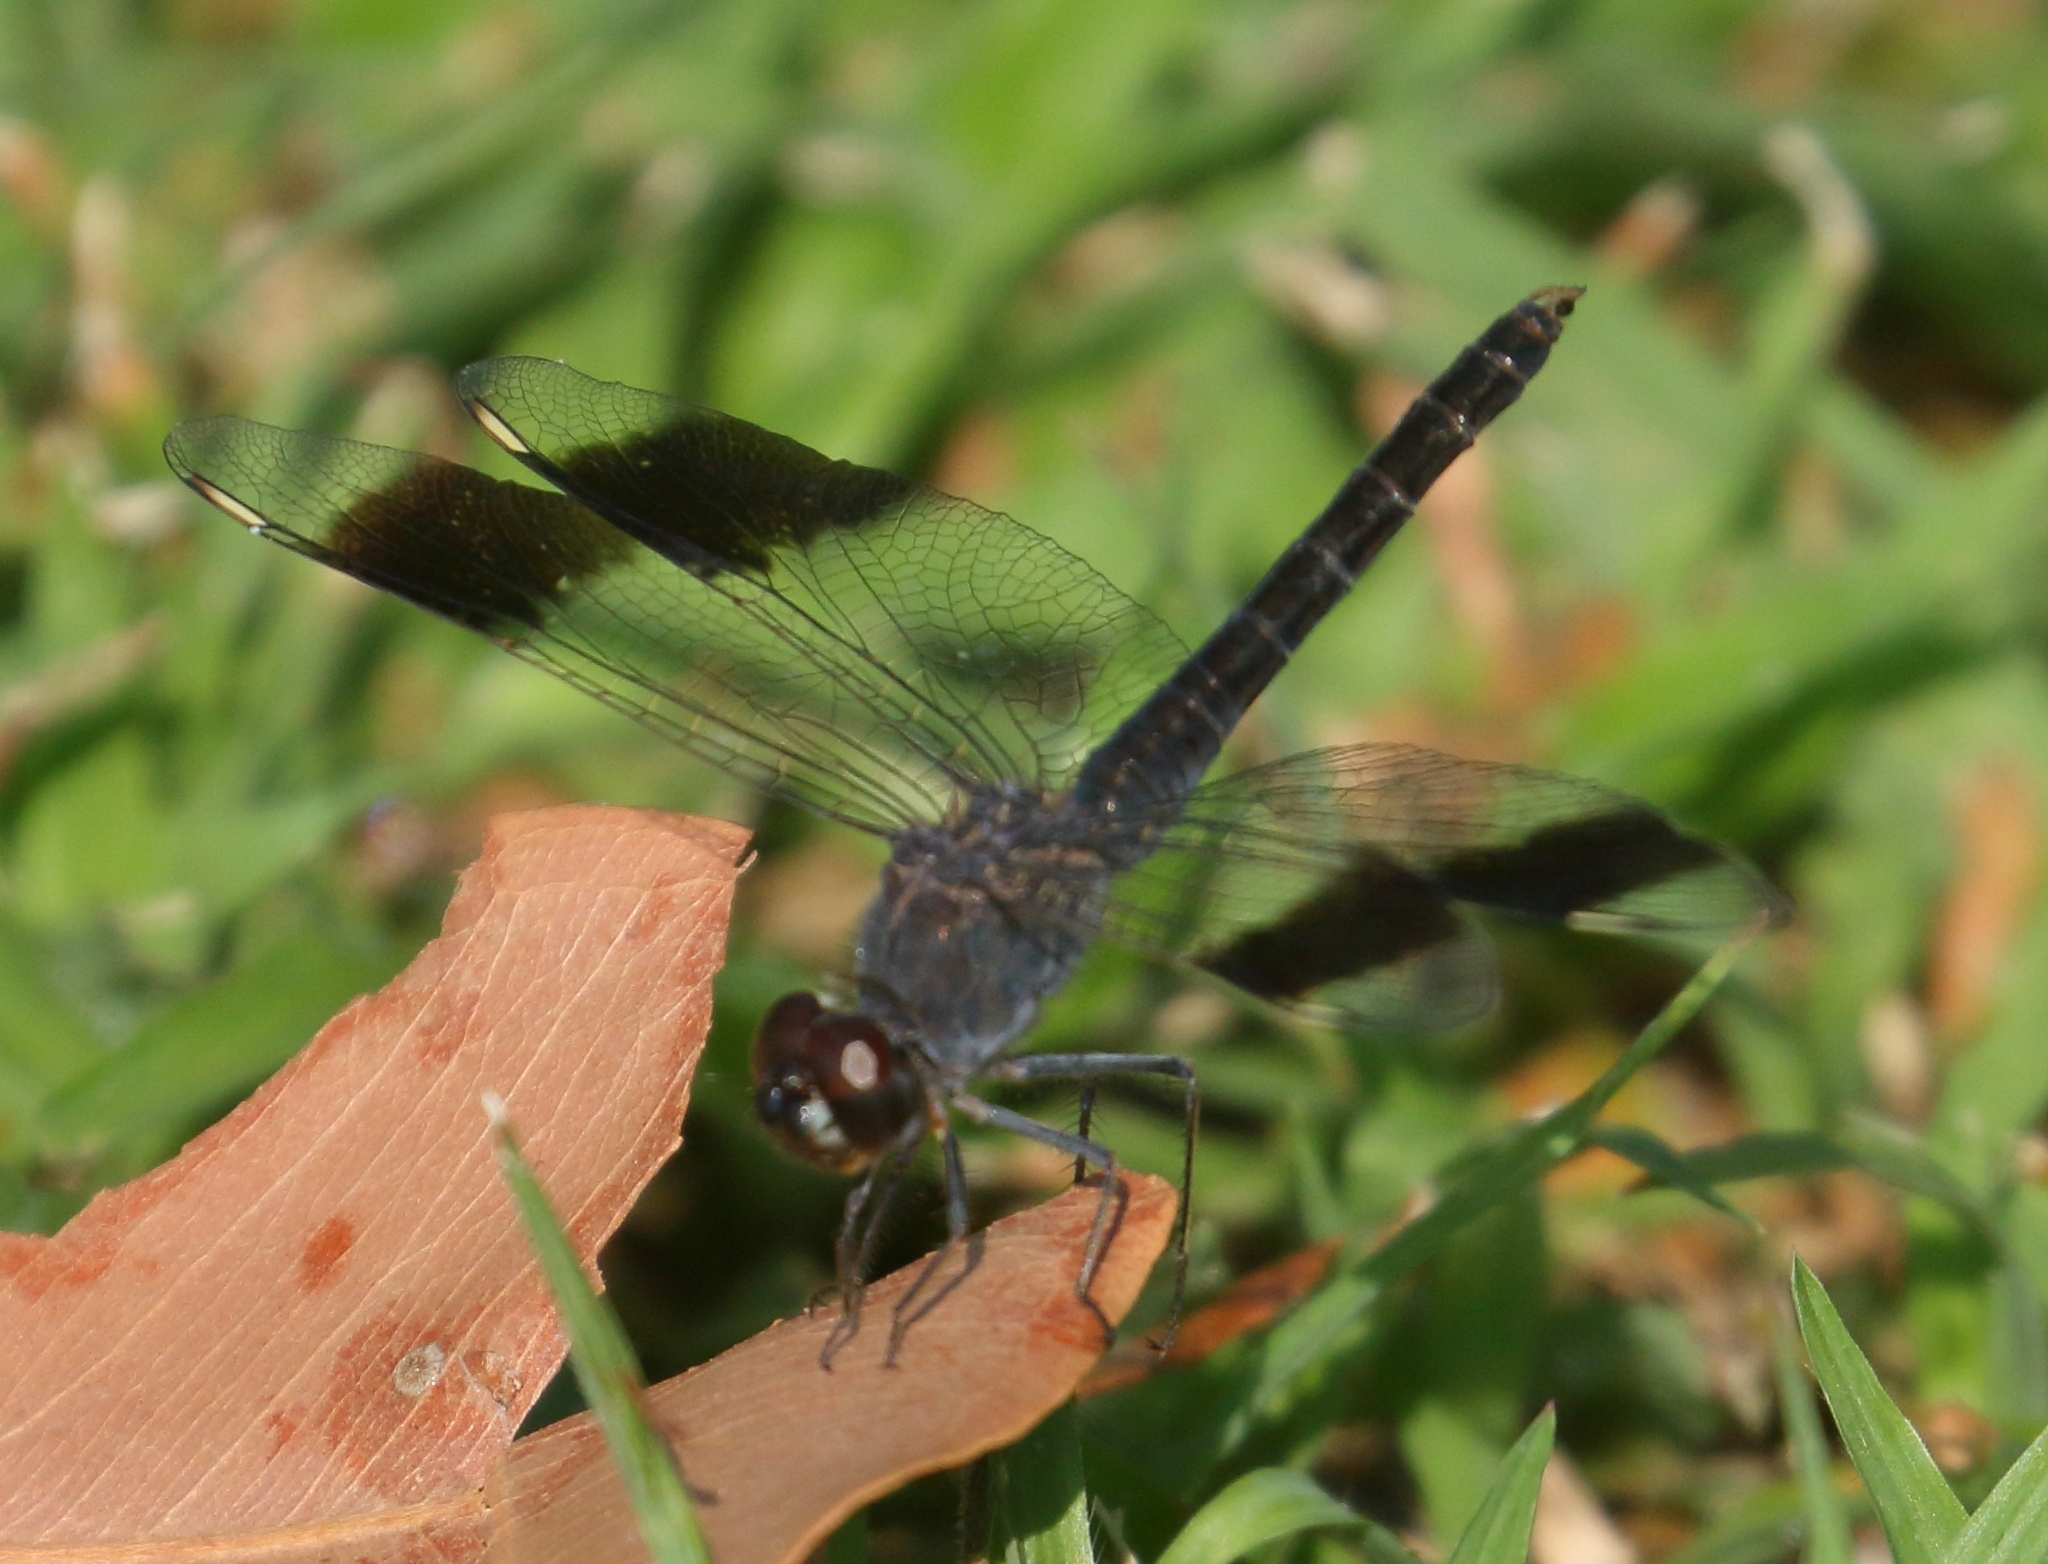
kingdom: Animalia
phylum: Arthropoda
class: Insecta
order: Odonata
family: Libellulidae
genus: Brachythemis
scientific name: Brachythemis leucosticta
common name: Banded groundling
